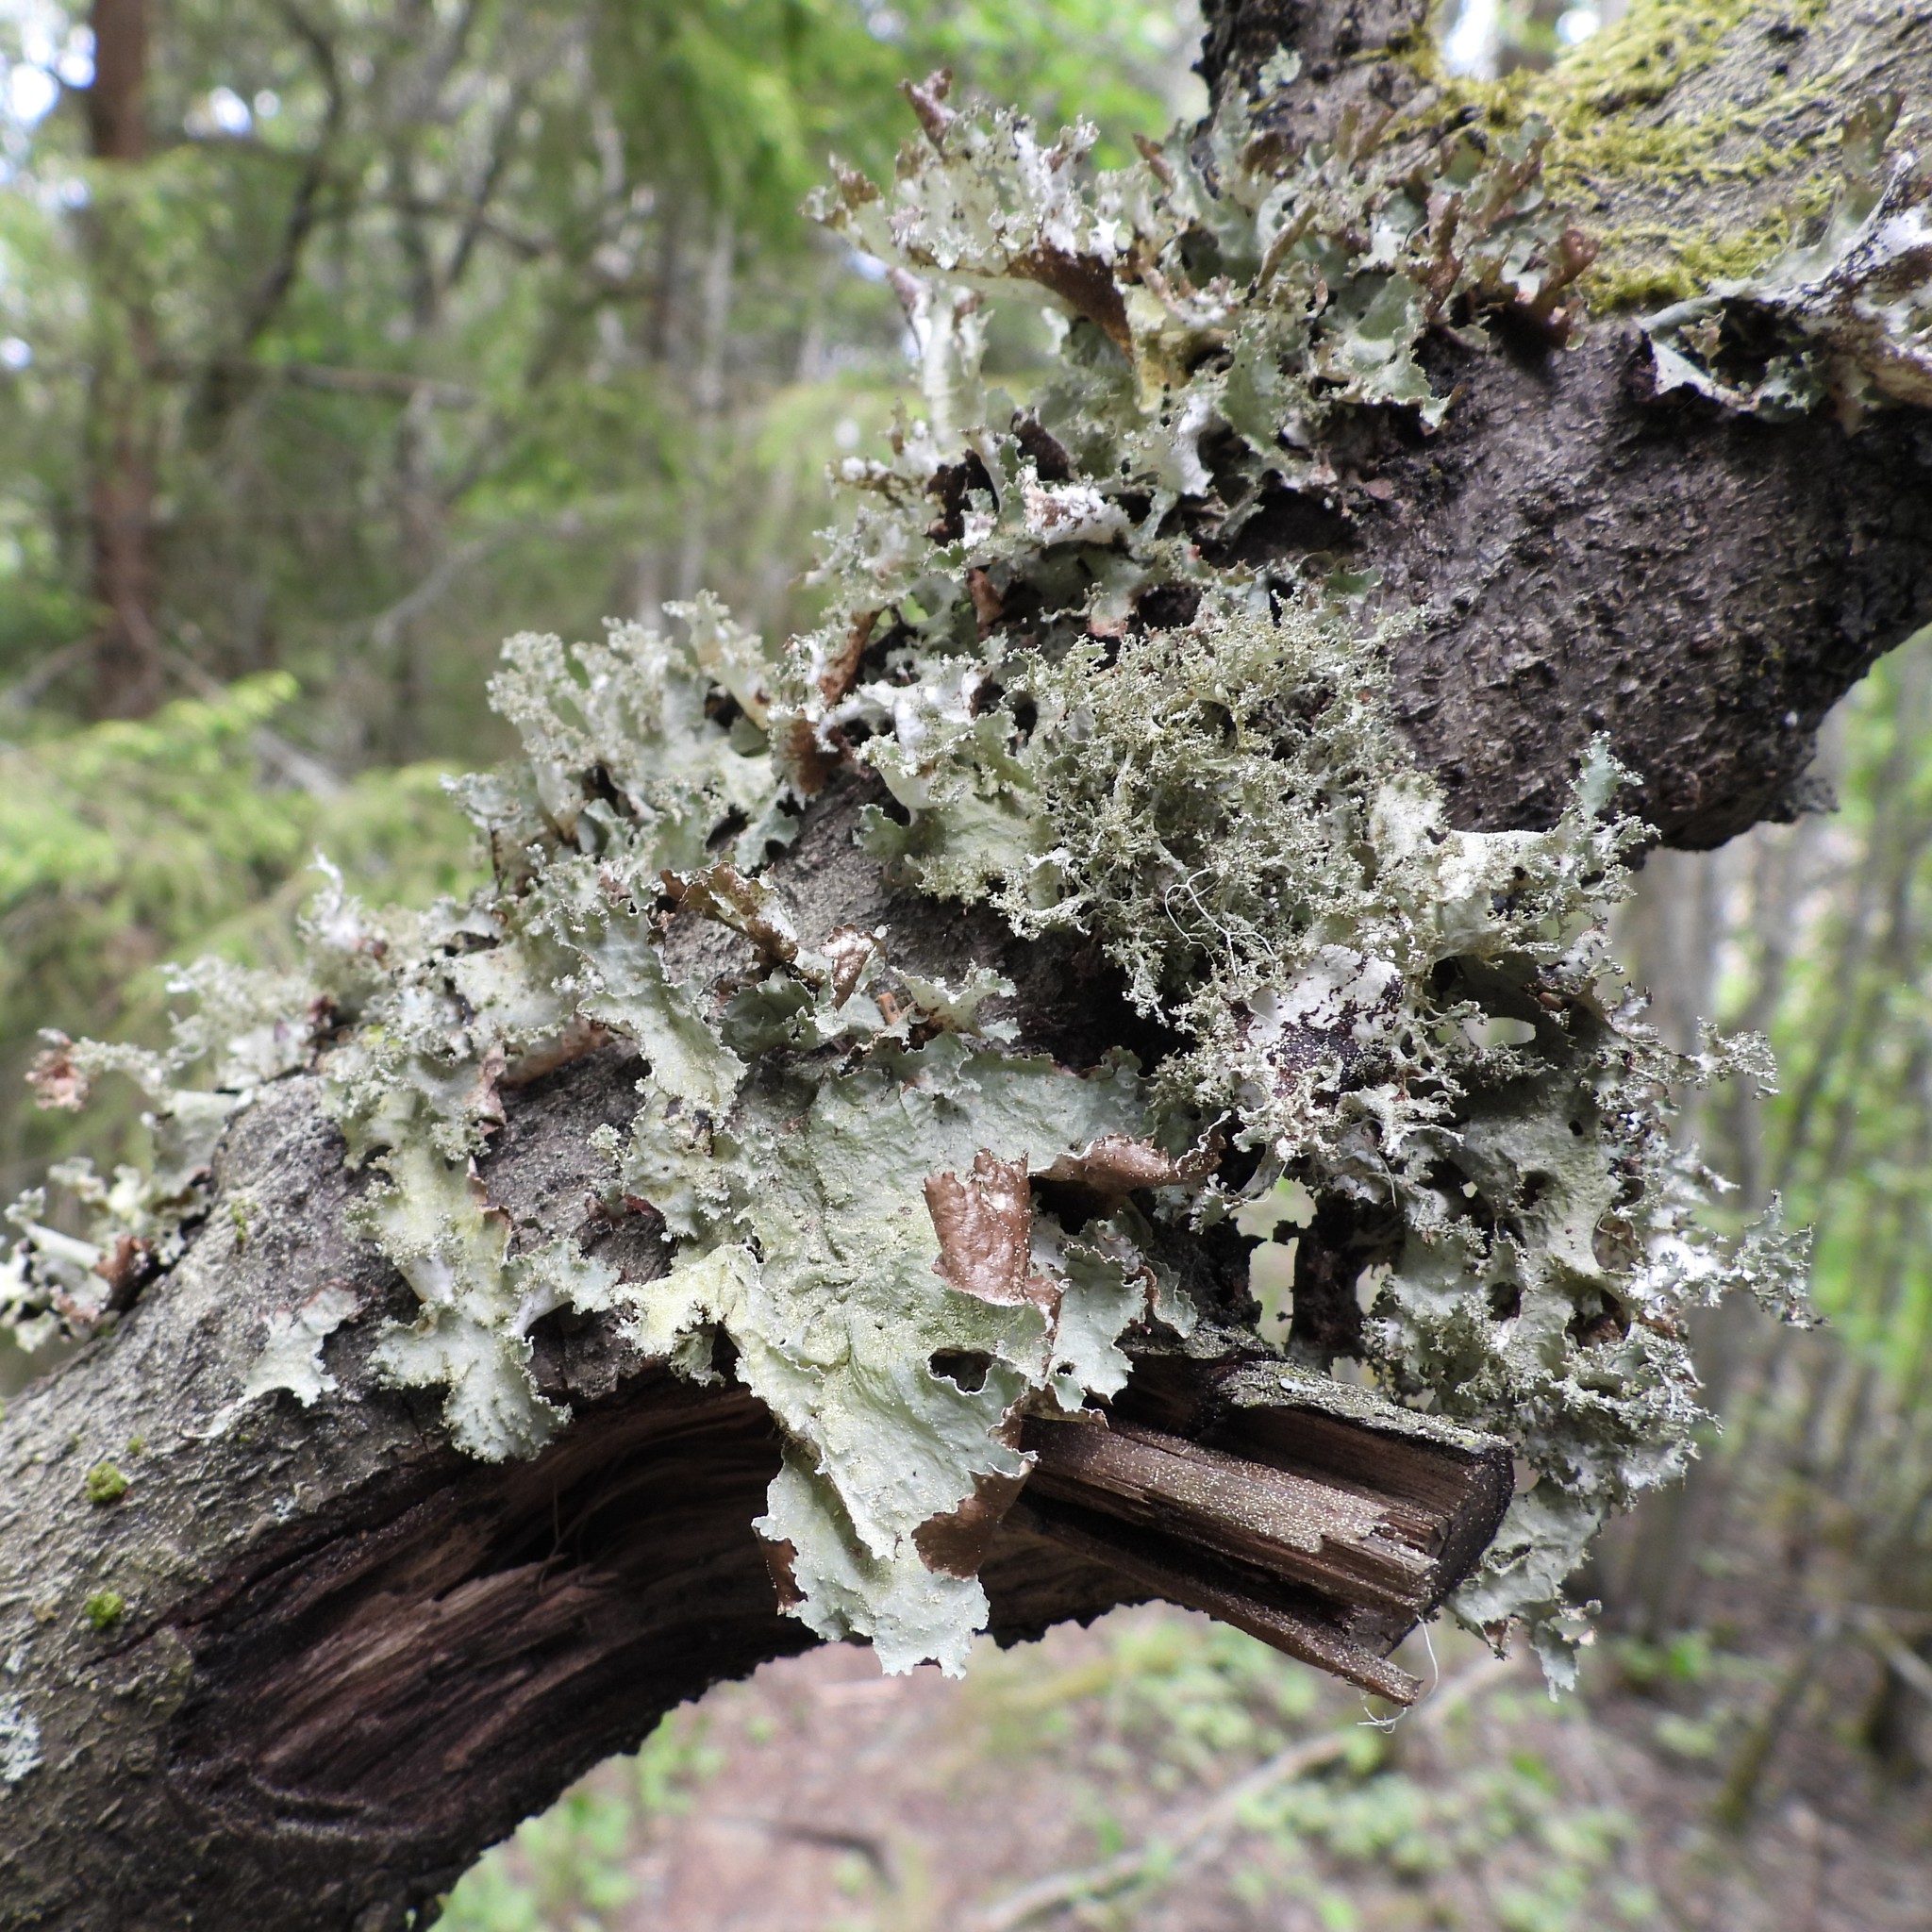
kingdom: Fungi
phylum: Ascomycota
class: Lecanoromycetes
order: Lecanorales
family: Parmeliaceae
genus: Platismatia
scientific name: Platismatia glauca
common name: Varied rag lichen
